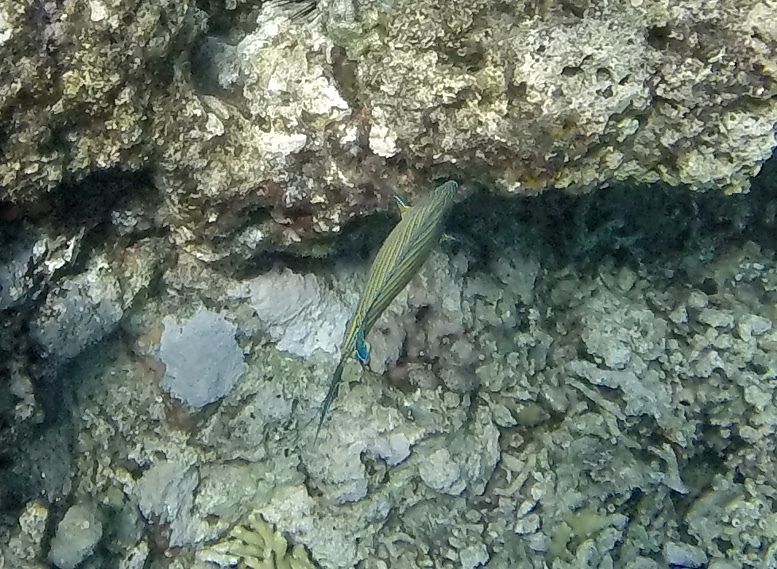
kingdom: Animalia
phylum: Chordata
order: Perciformes
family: Acanthuridae
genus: Acanthurus
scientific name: Acanthurus lineatus
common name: Striped surgeonfish
